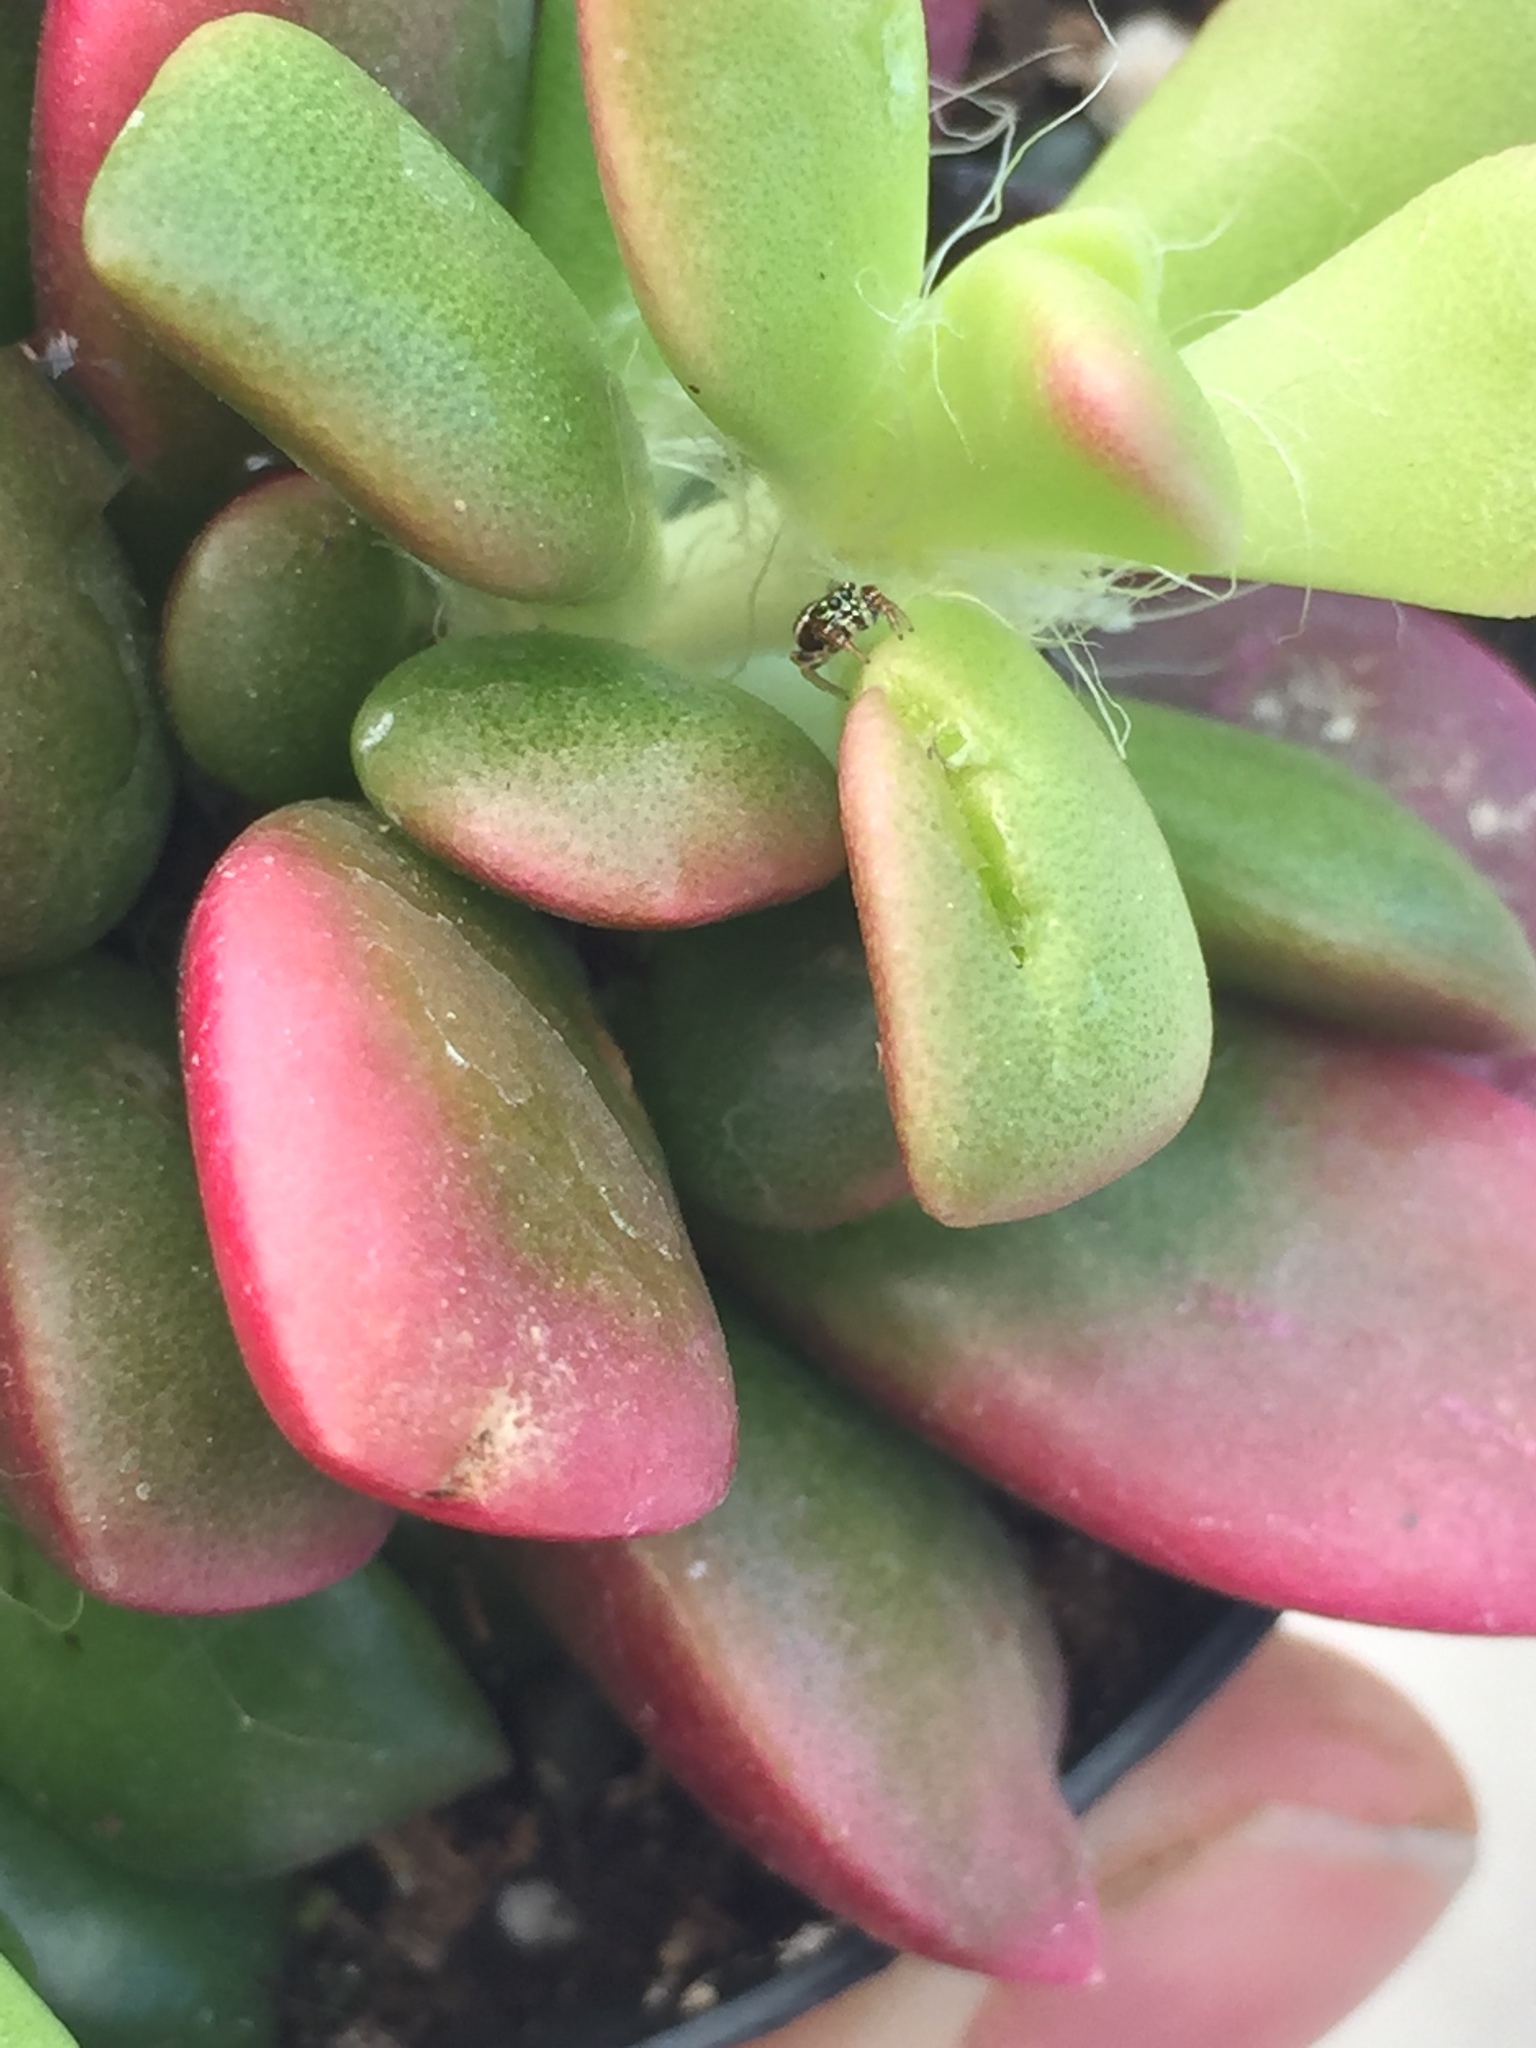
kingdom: Animalia
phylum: Arthropoda
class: Arachnida
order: Araneae
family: Salticidae
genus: Sassacus
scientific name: Sassacus vitis
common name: Jumping spiders
